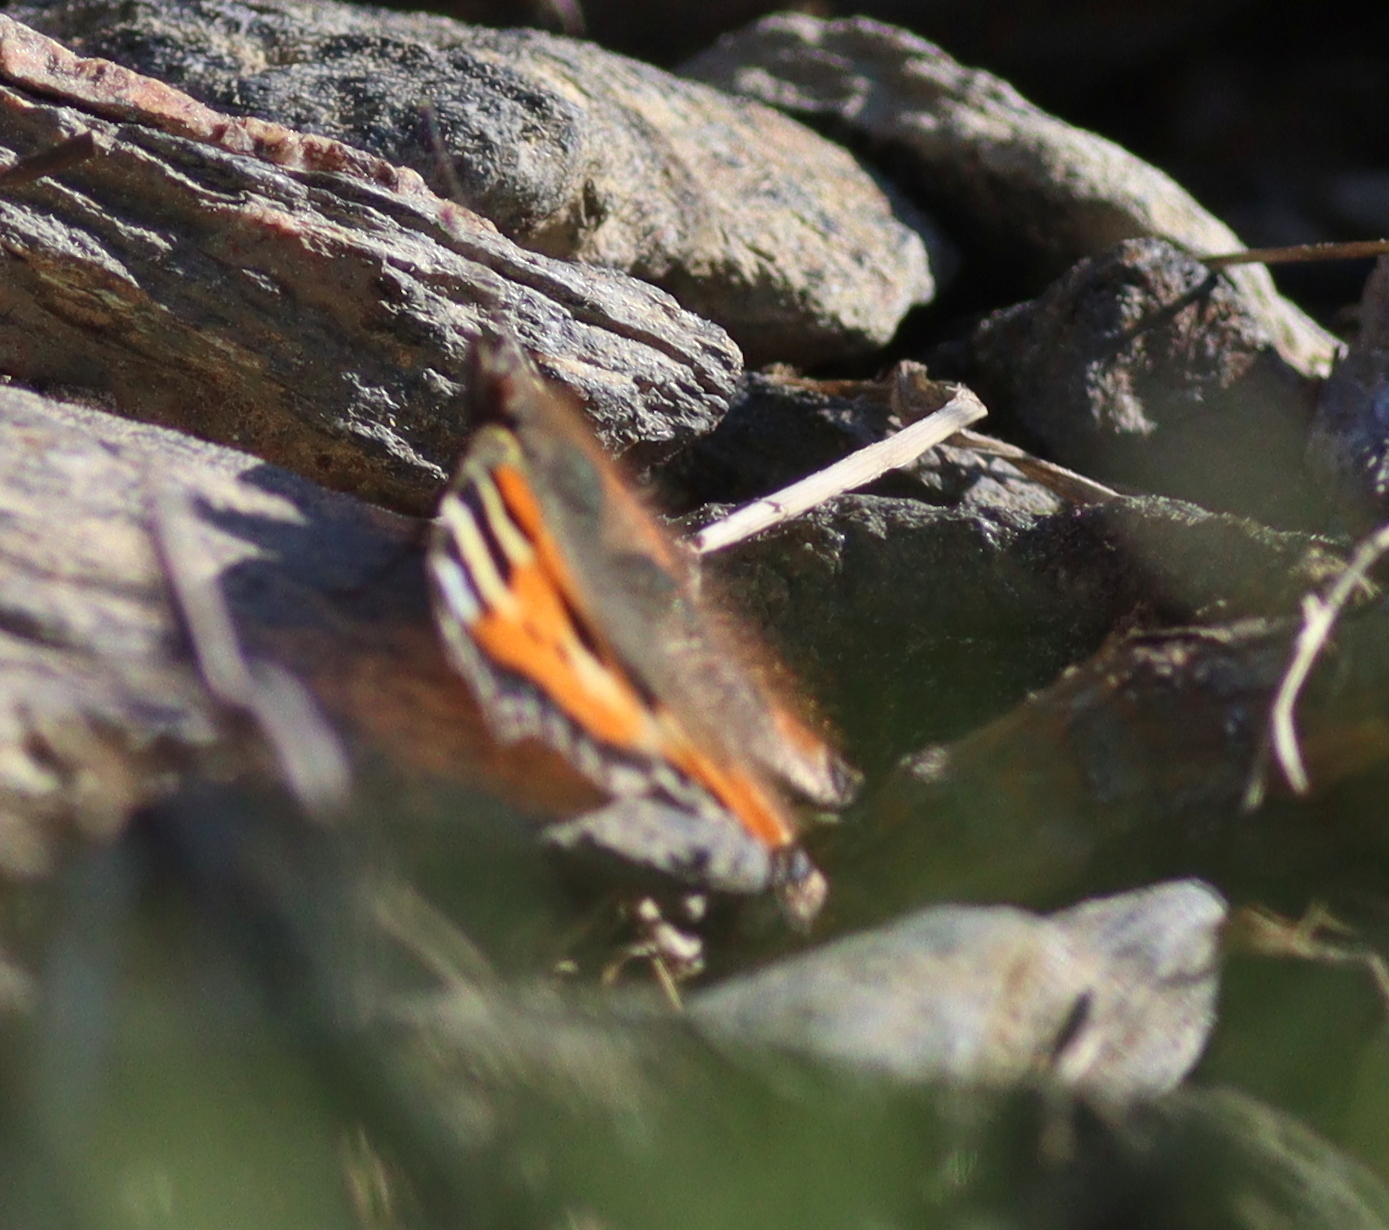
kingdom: Animalia
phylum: Arthropoda
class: Insecta
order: Lepidoptera
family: Nymphalidae
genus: Aglais
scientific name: Aglais urticae
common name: Small tortoiseshell
